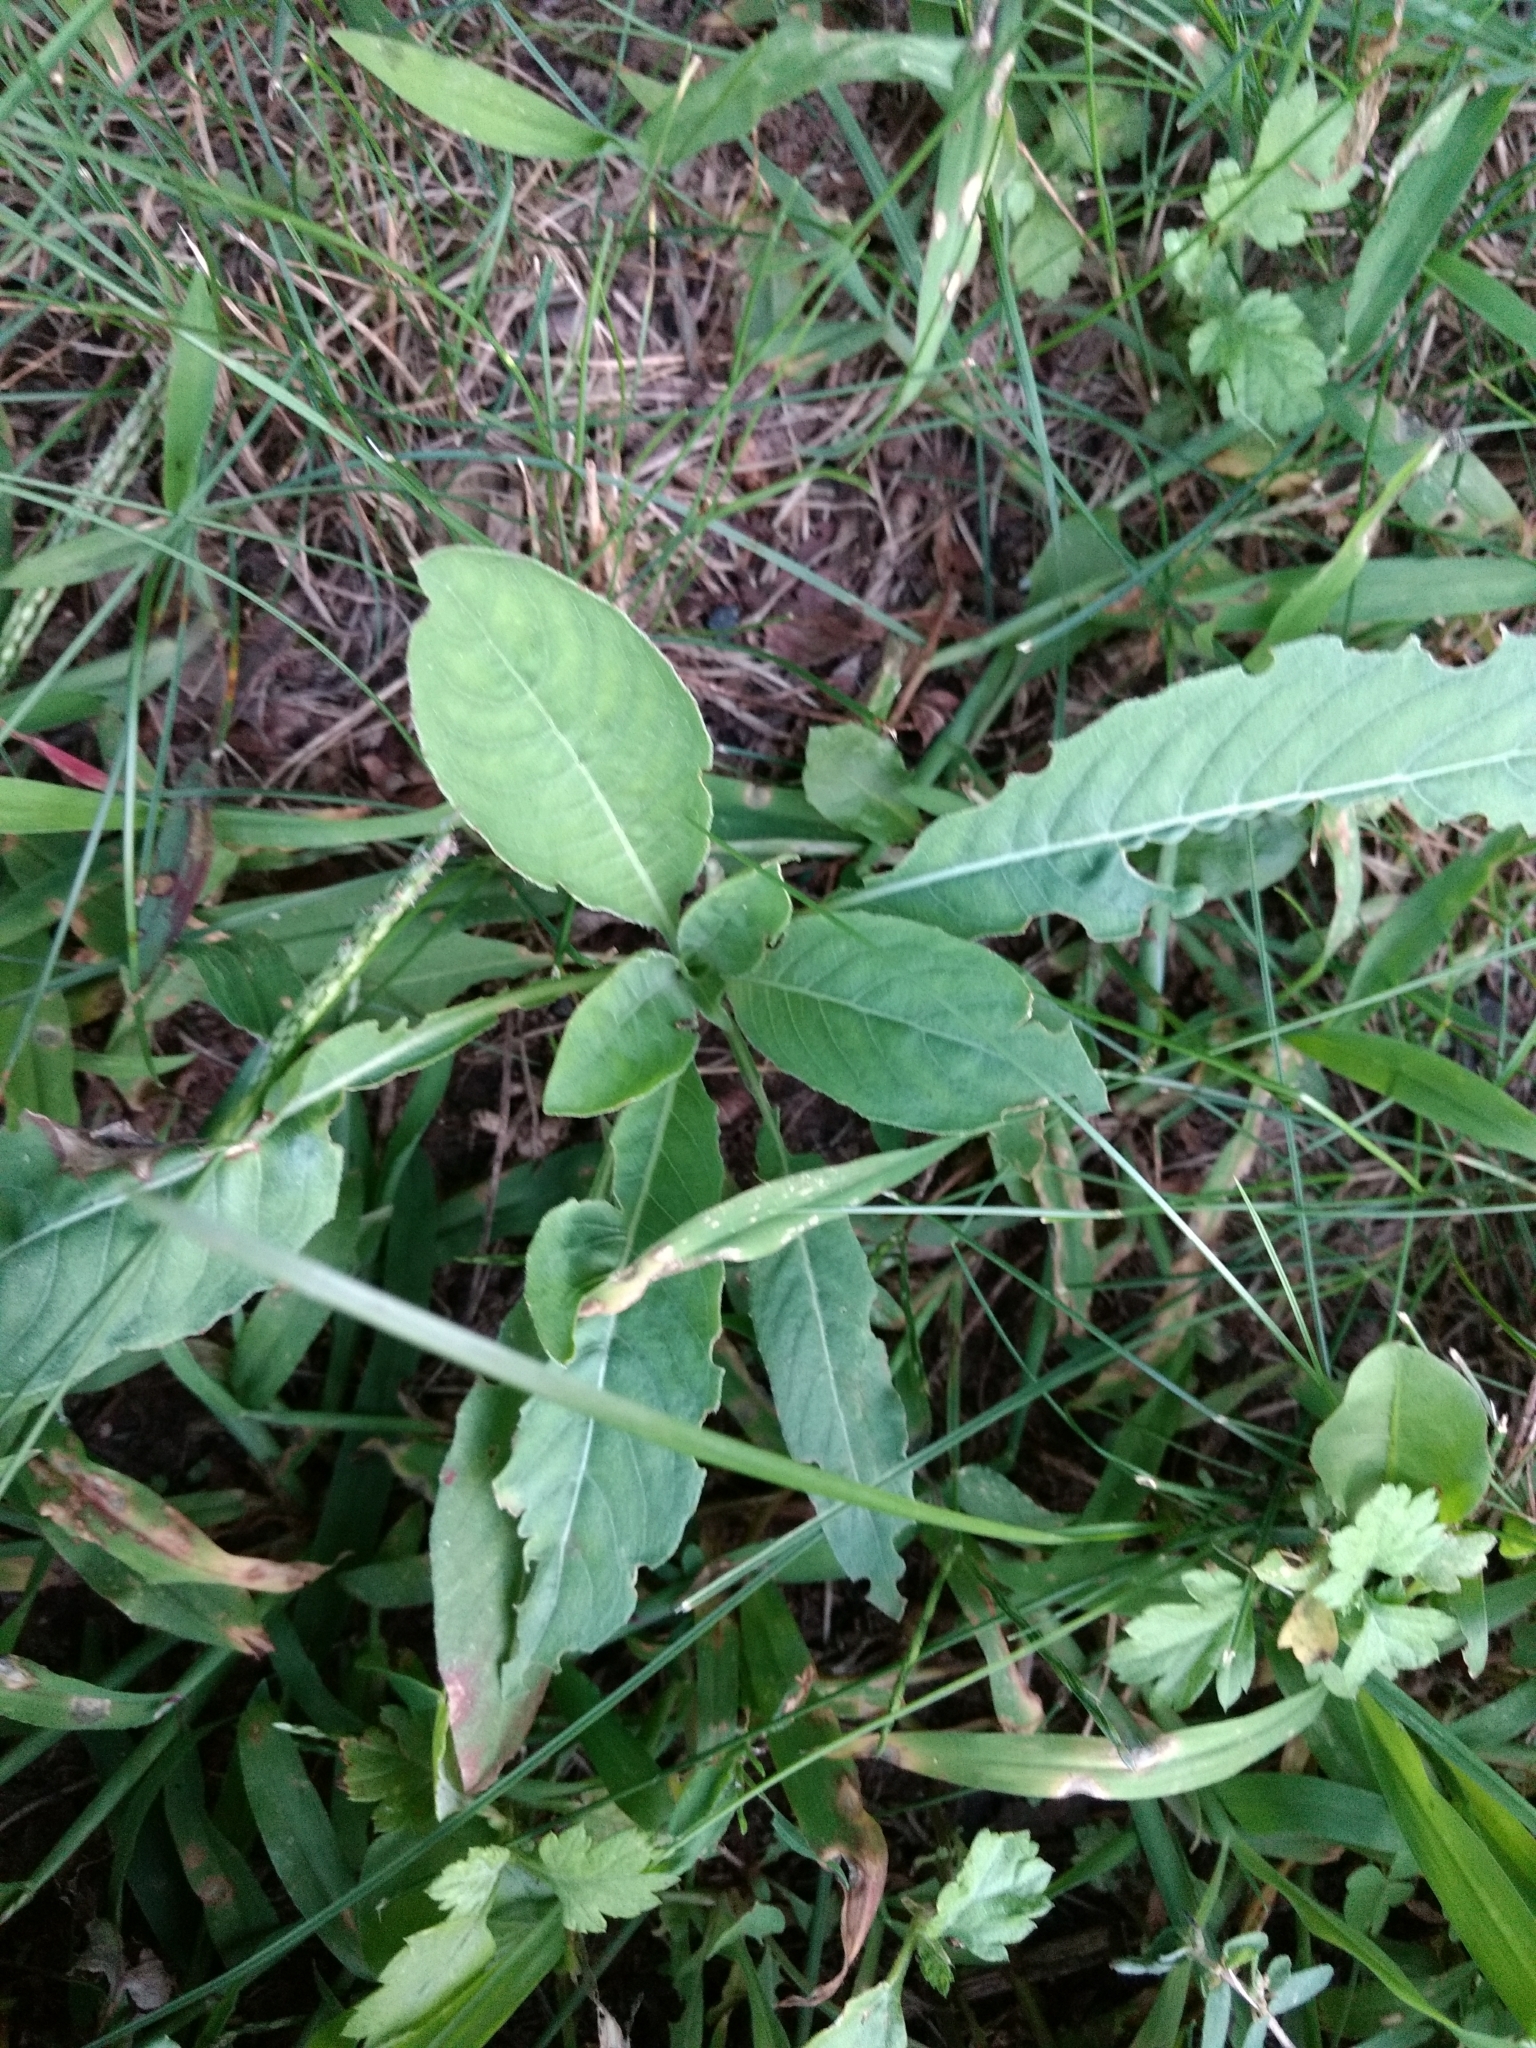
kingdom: Plantae
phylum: Tracheophyta
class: Magnoliopsida
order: Myrtales
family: Onagraceae
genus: Oenothera
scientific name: Oenothera biennis
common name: Common evening-primrose
